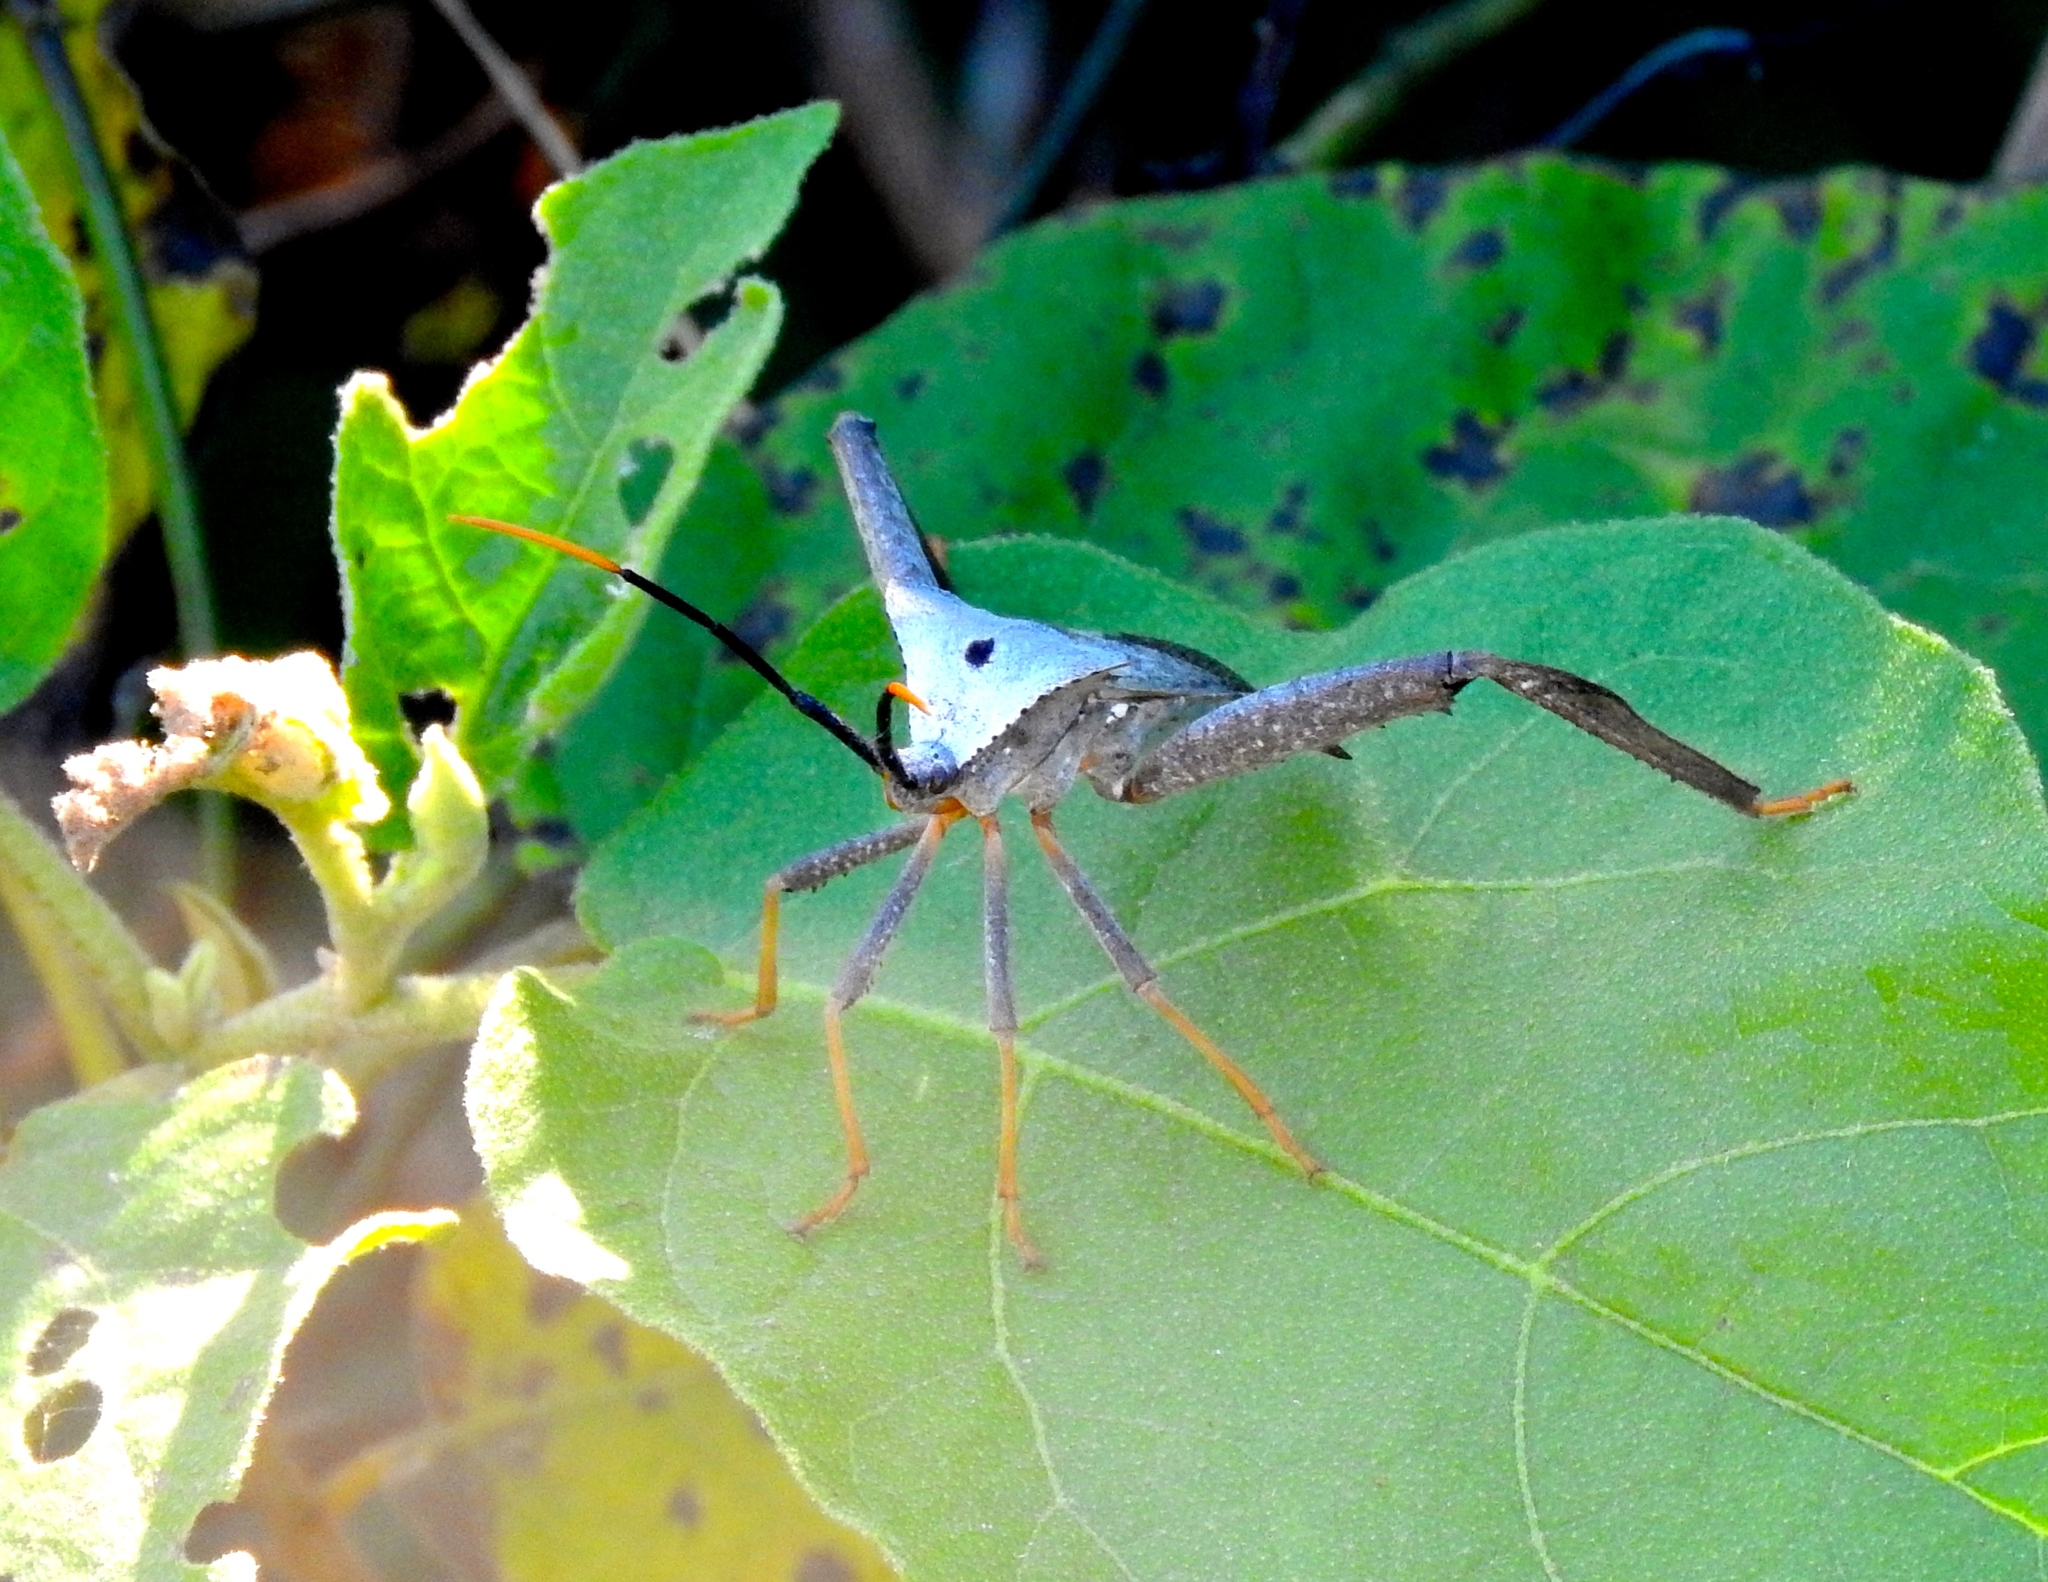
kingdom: Animalia
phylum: Arthropoda
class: Insecta
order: Hemiptera
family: Coreidae
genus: Acanthocephala
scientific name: Acanthocephala alata
